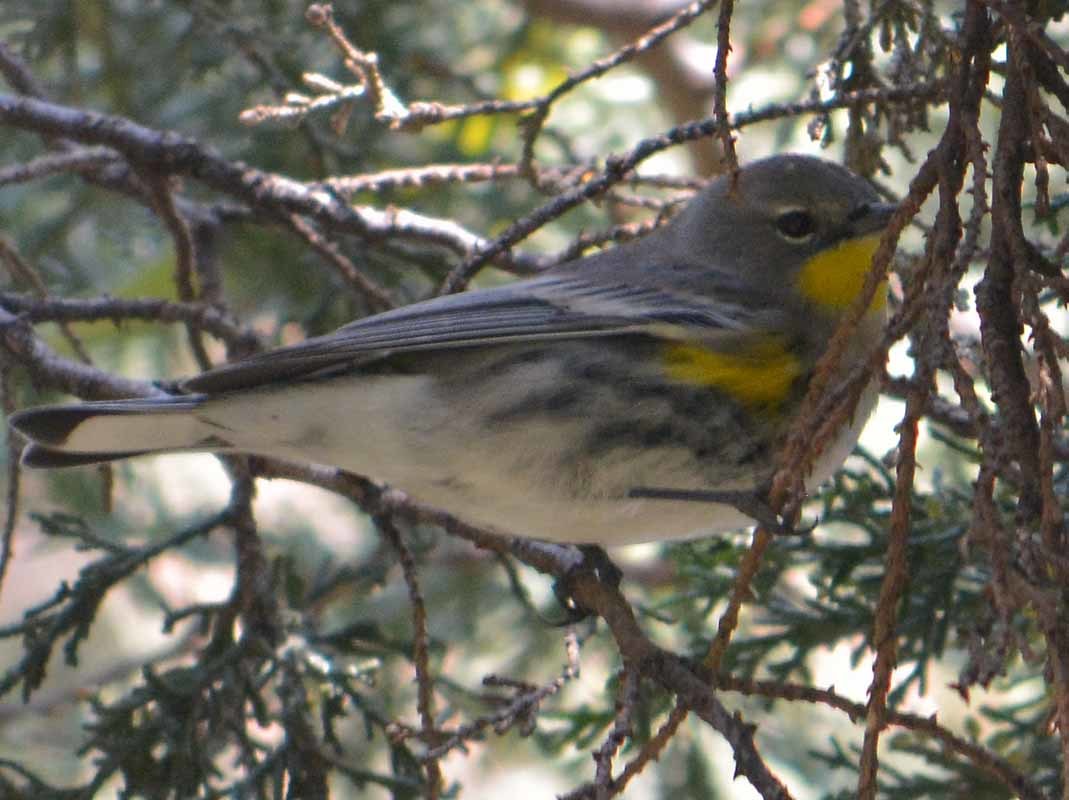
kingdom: Animalia
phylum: Chordata
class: Aves
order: Passeriformes
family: Parulidae
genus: Setophaga
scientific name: Setophaga coronata
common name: Myrtle warbler
